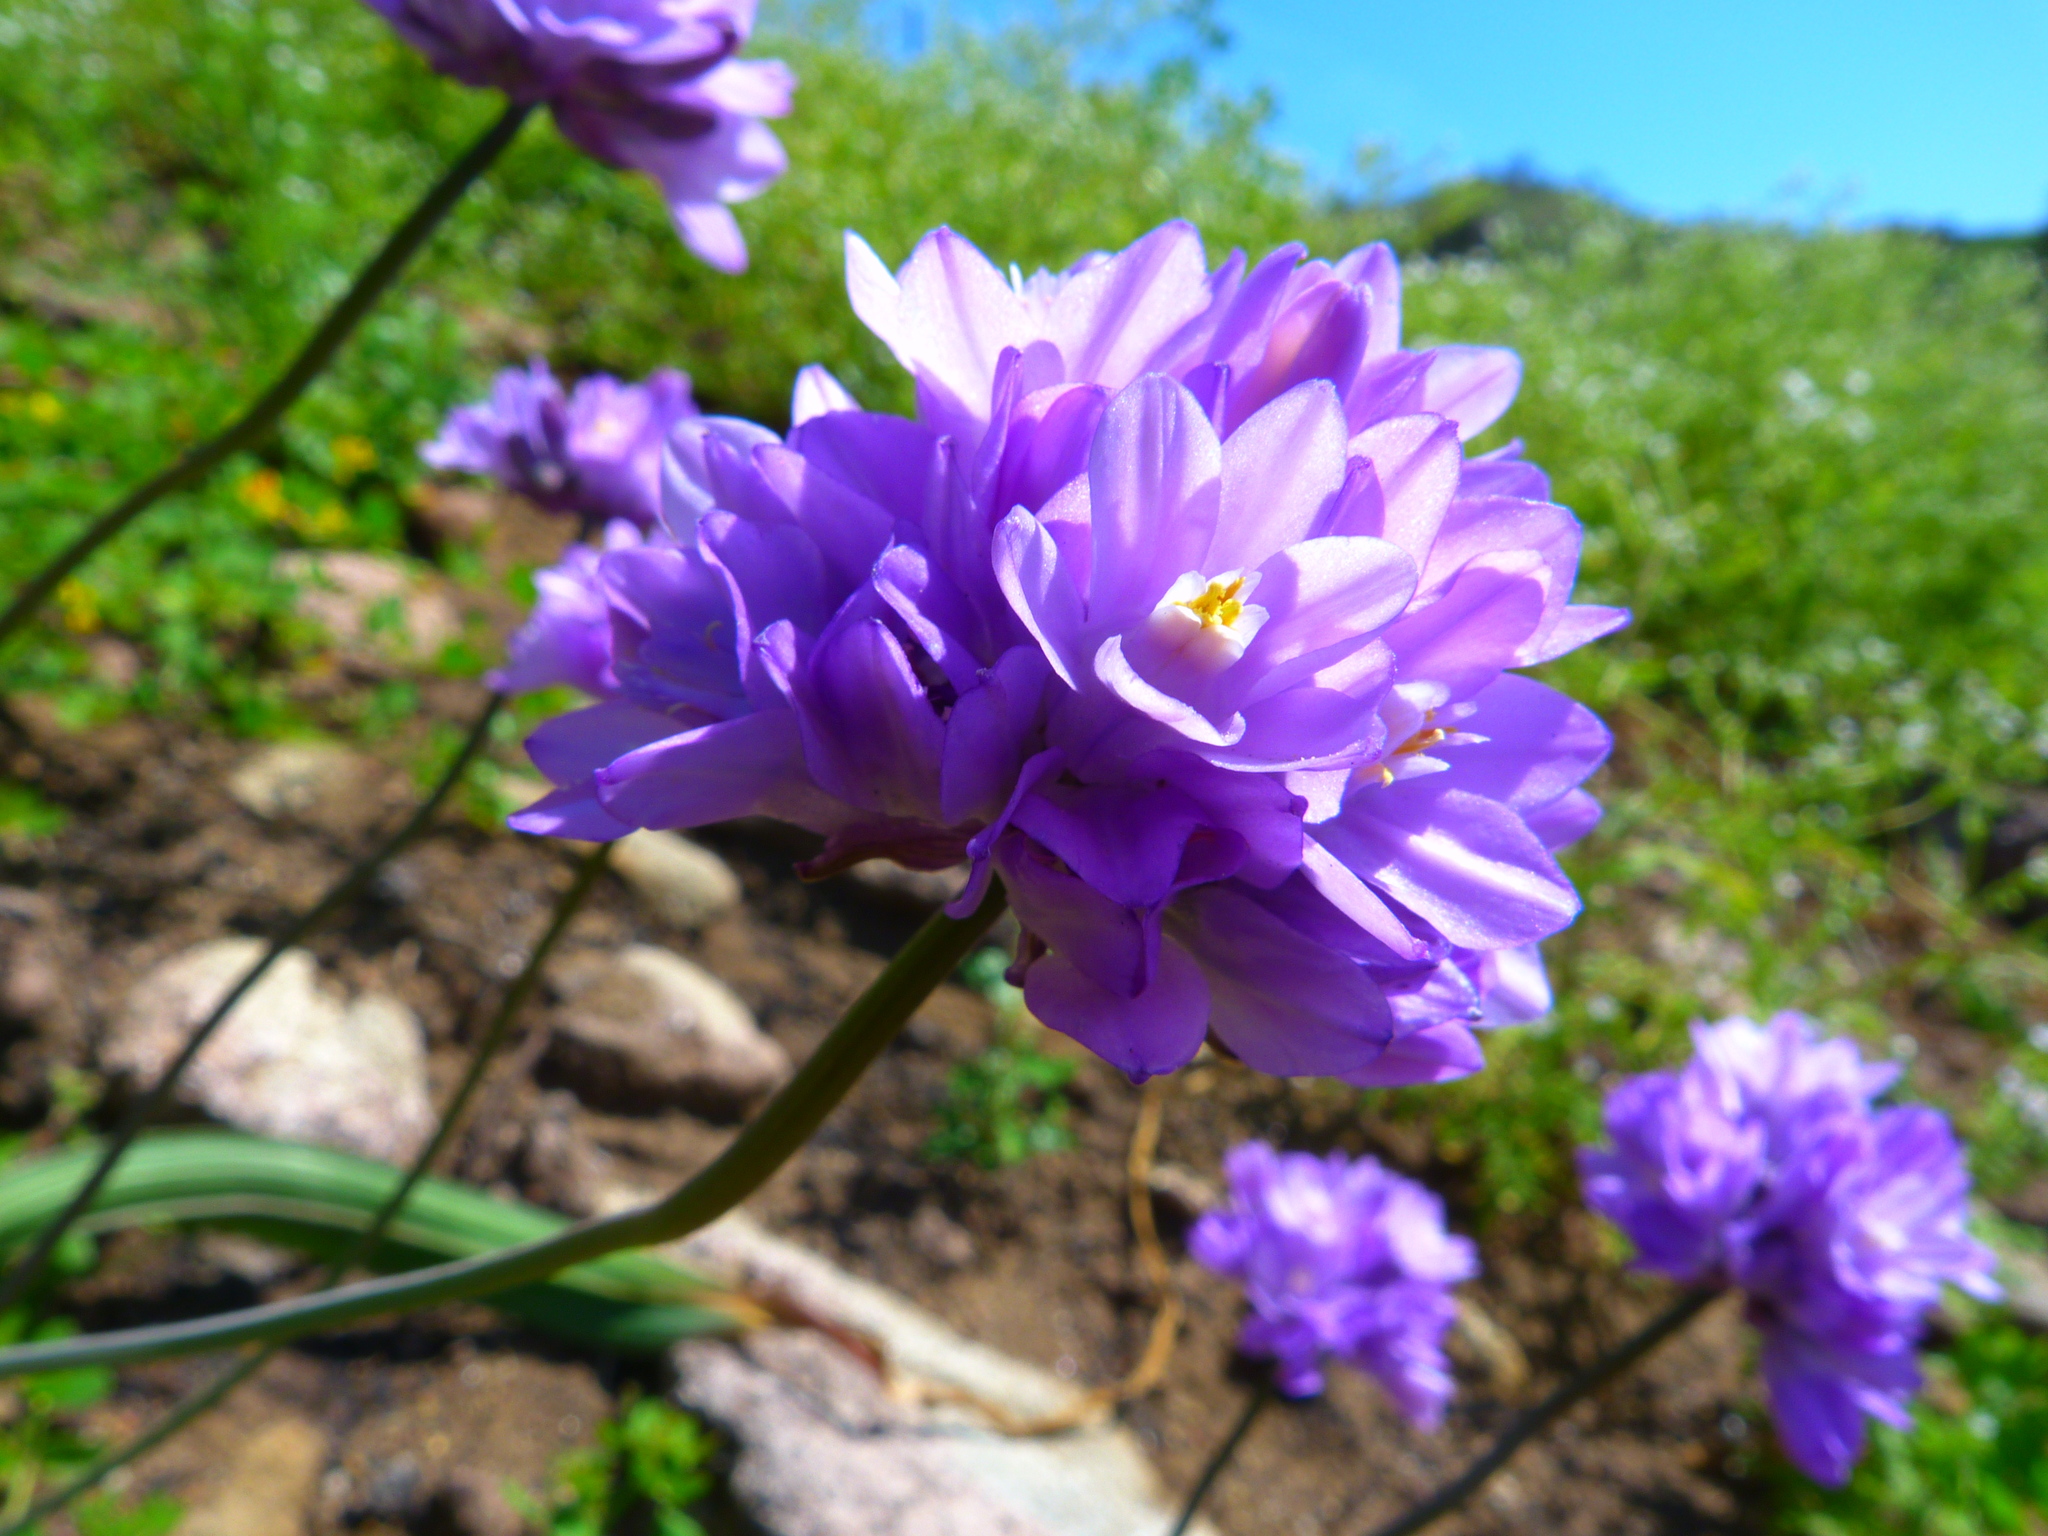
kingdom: Plantae
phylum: Tracheophyta
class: Liliopsida
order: Asparagales
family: Asparagaceae
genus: Dipterostemon
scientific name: Dipterostemon capitatus
